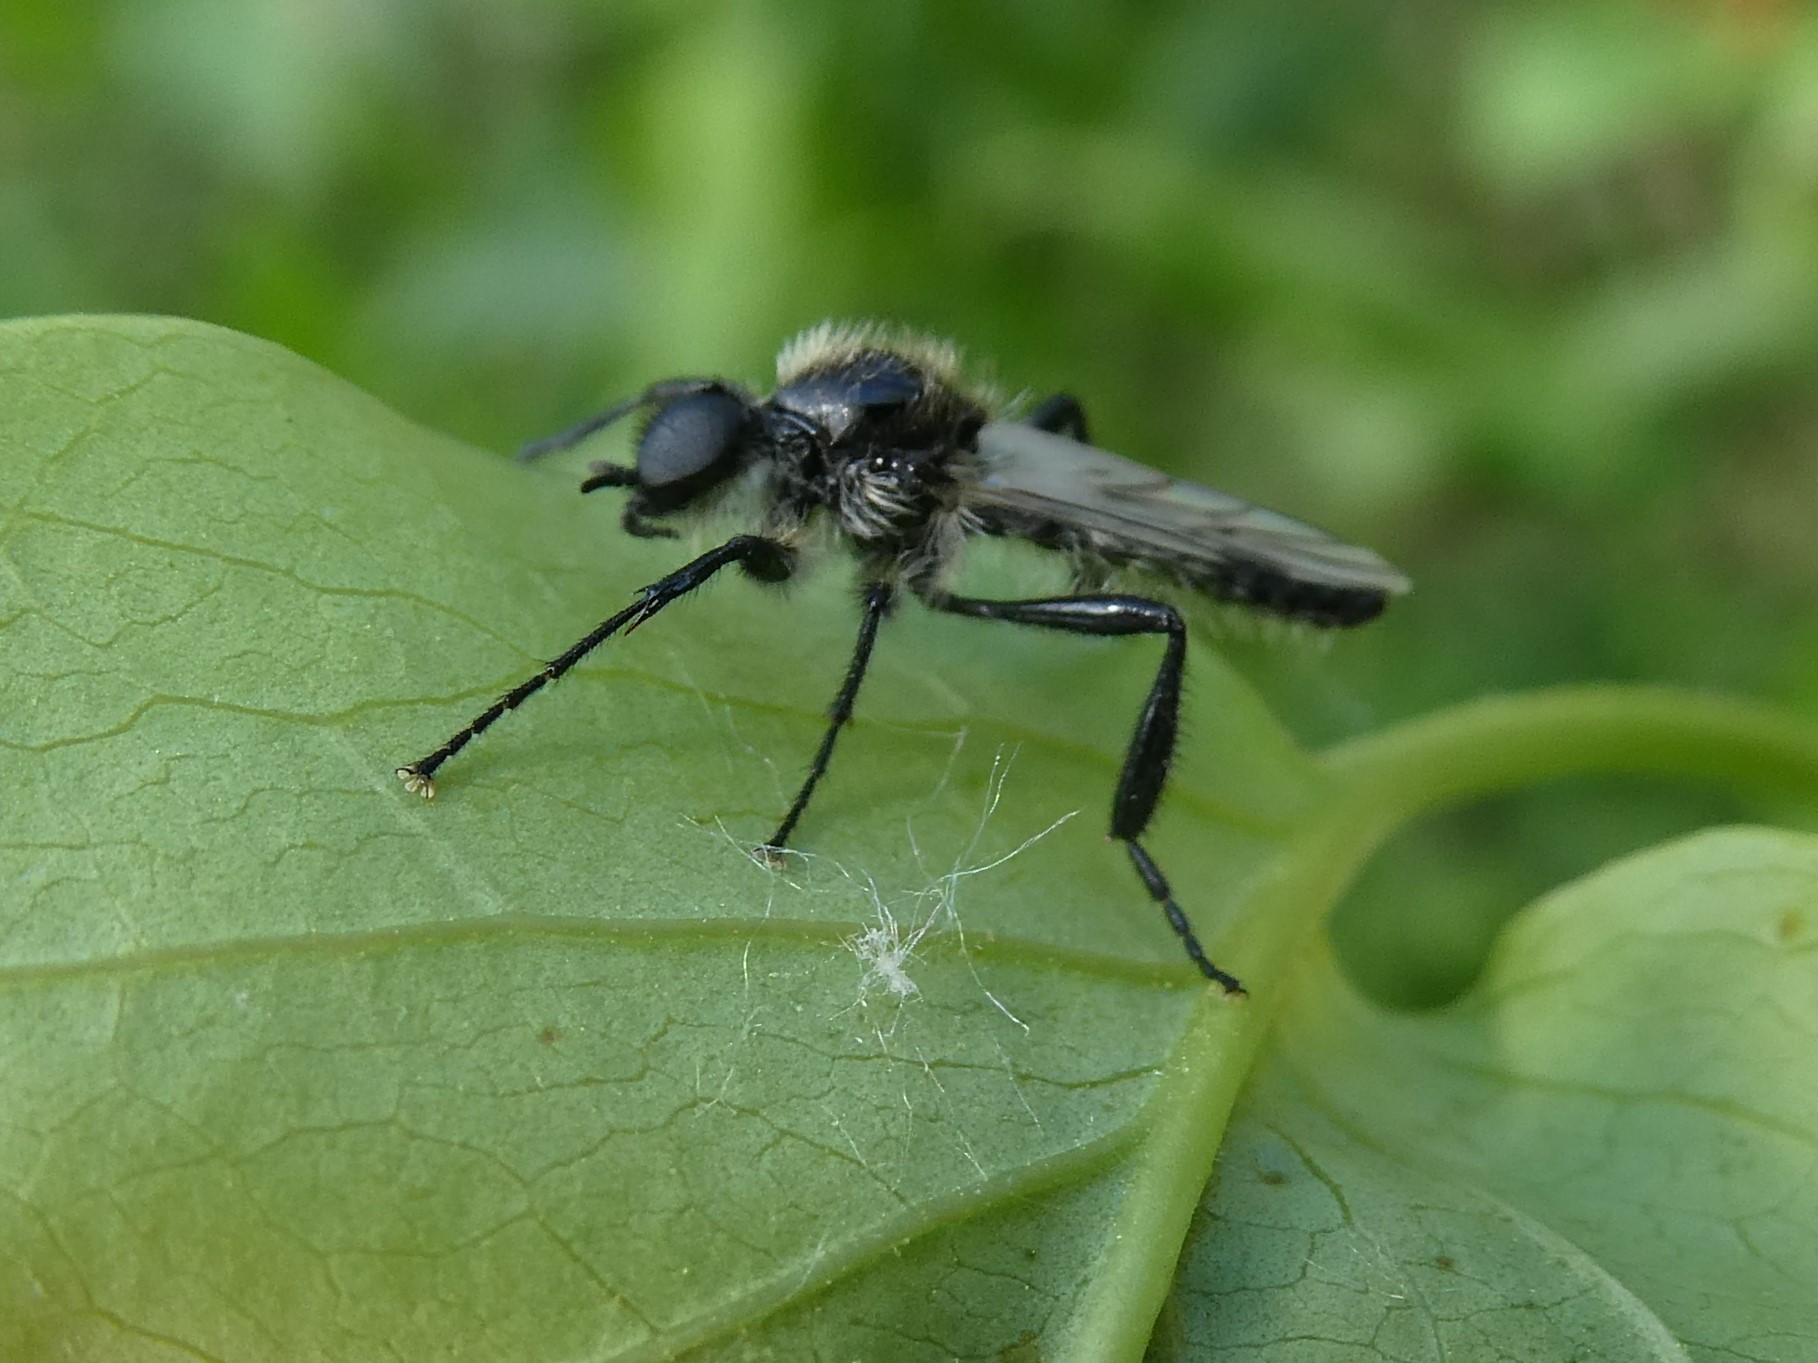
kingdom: Animalia
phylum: Arthropoda
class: Insecta
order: Diptera
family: Bibionidae
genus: Bibio
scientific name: Bibio albipennis
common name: White-winged march fly
